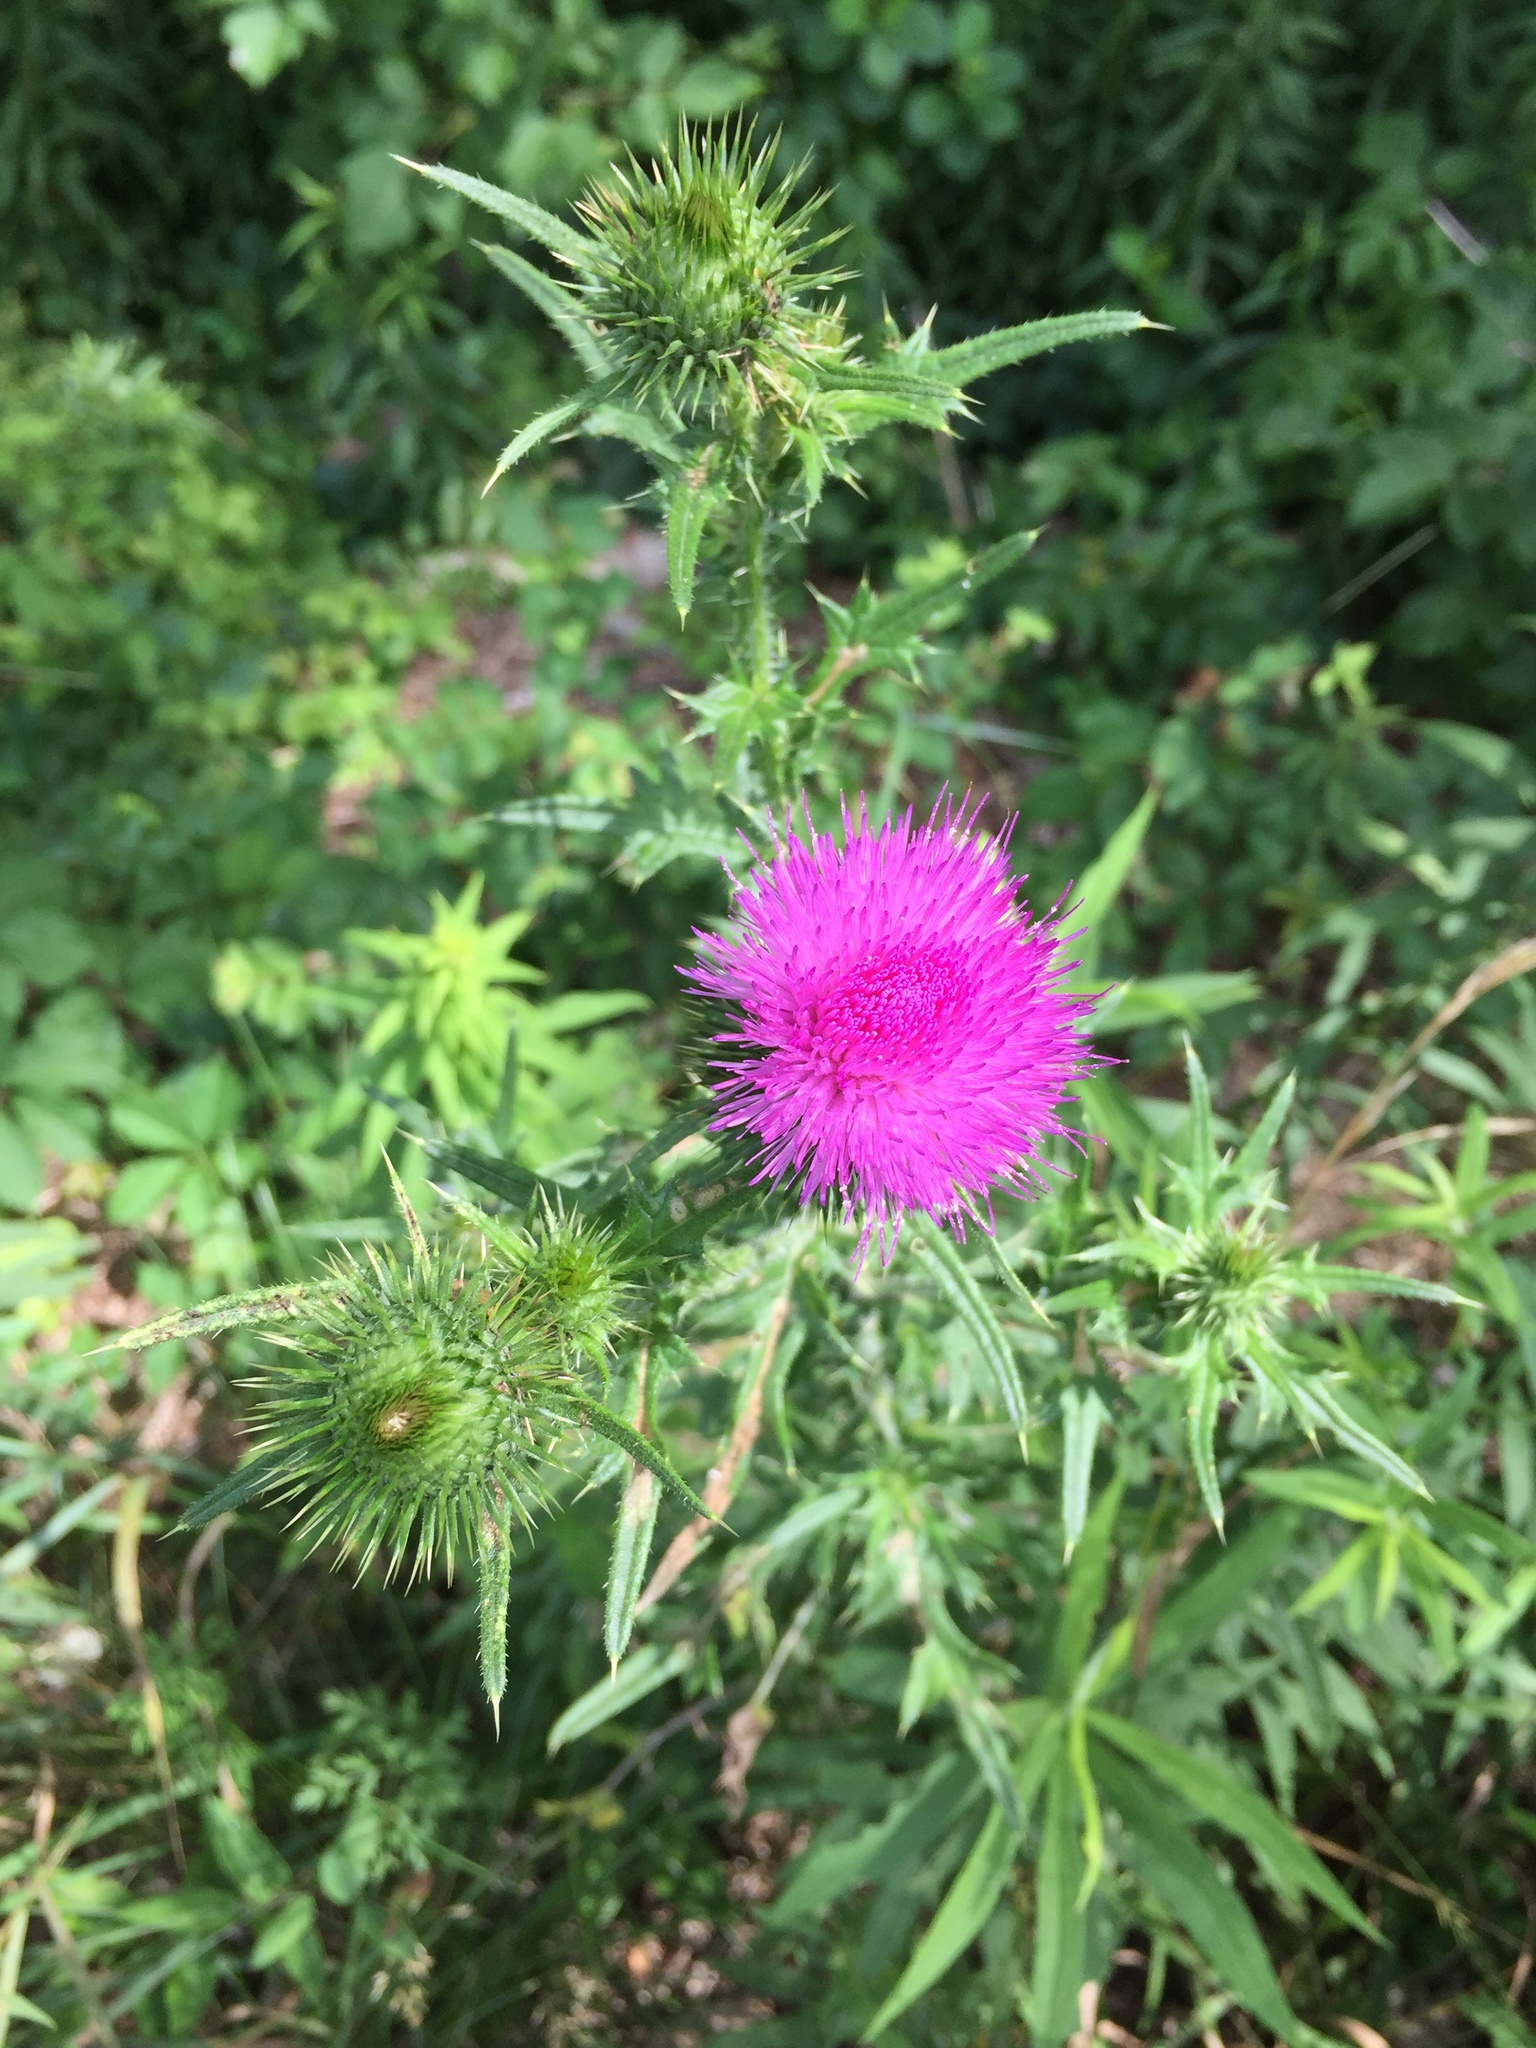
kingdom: Plantae
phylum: Tracheophyta
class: Magnoliopsida
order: Asterales
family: Asteraceae
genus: Cirsium
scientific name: Cirsium vulgare
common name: Bull thistle
